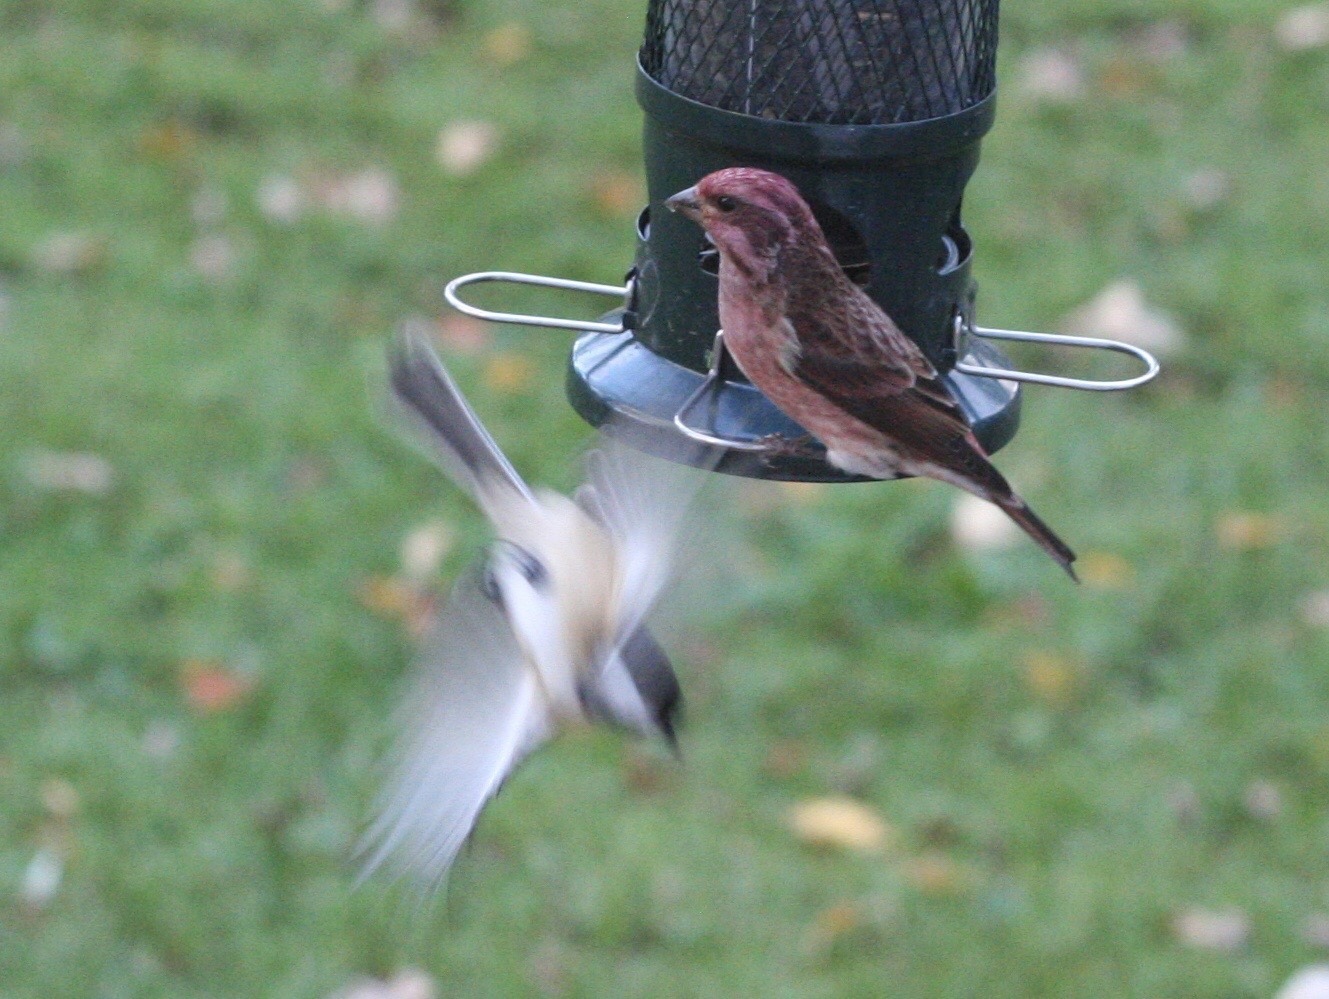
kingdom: Animalia
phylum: Chordata
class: Aves
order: Passeriformes
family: Fringillidae
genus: Haemorhous
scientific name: Haemorhous purpureus
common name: Purple finch
